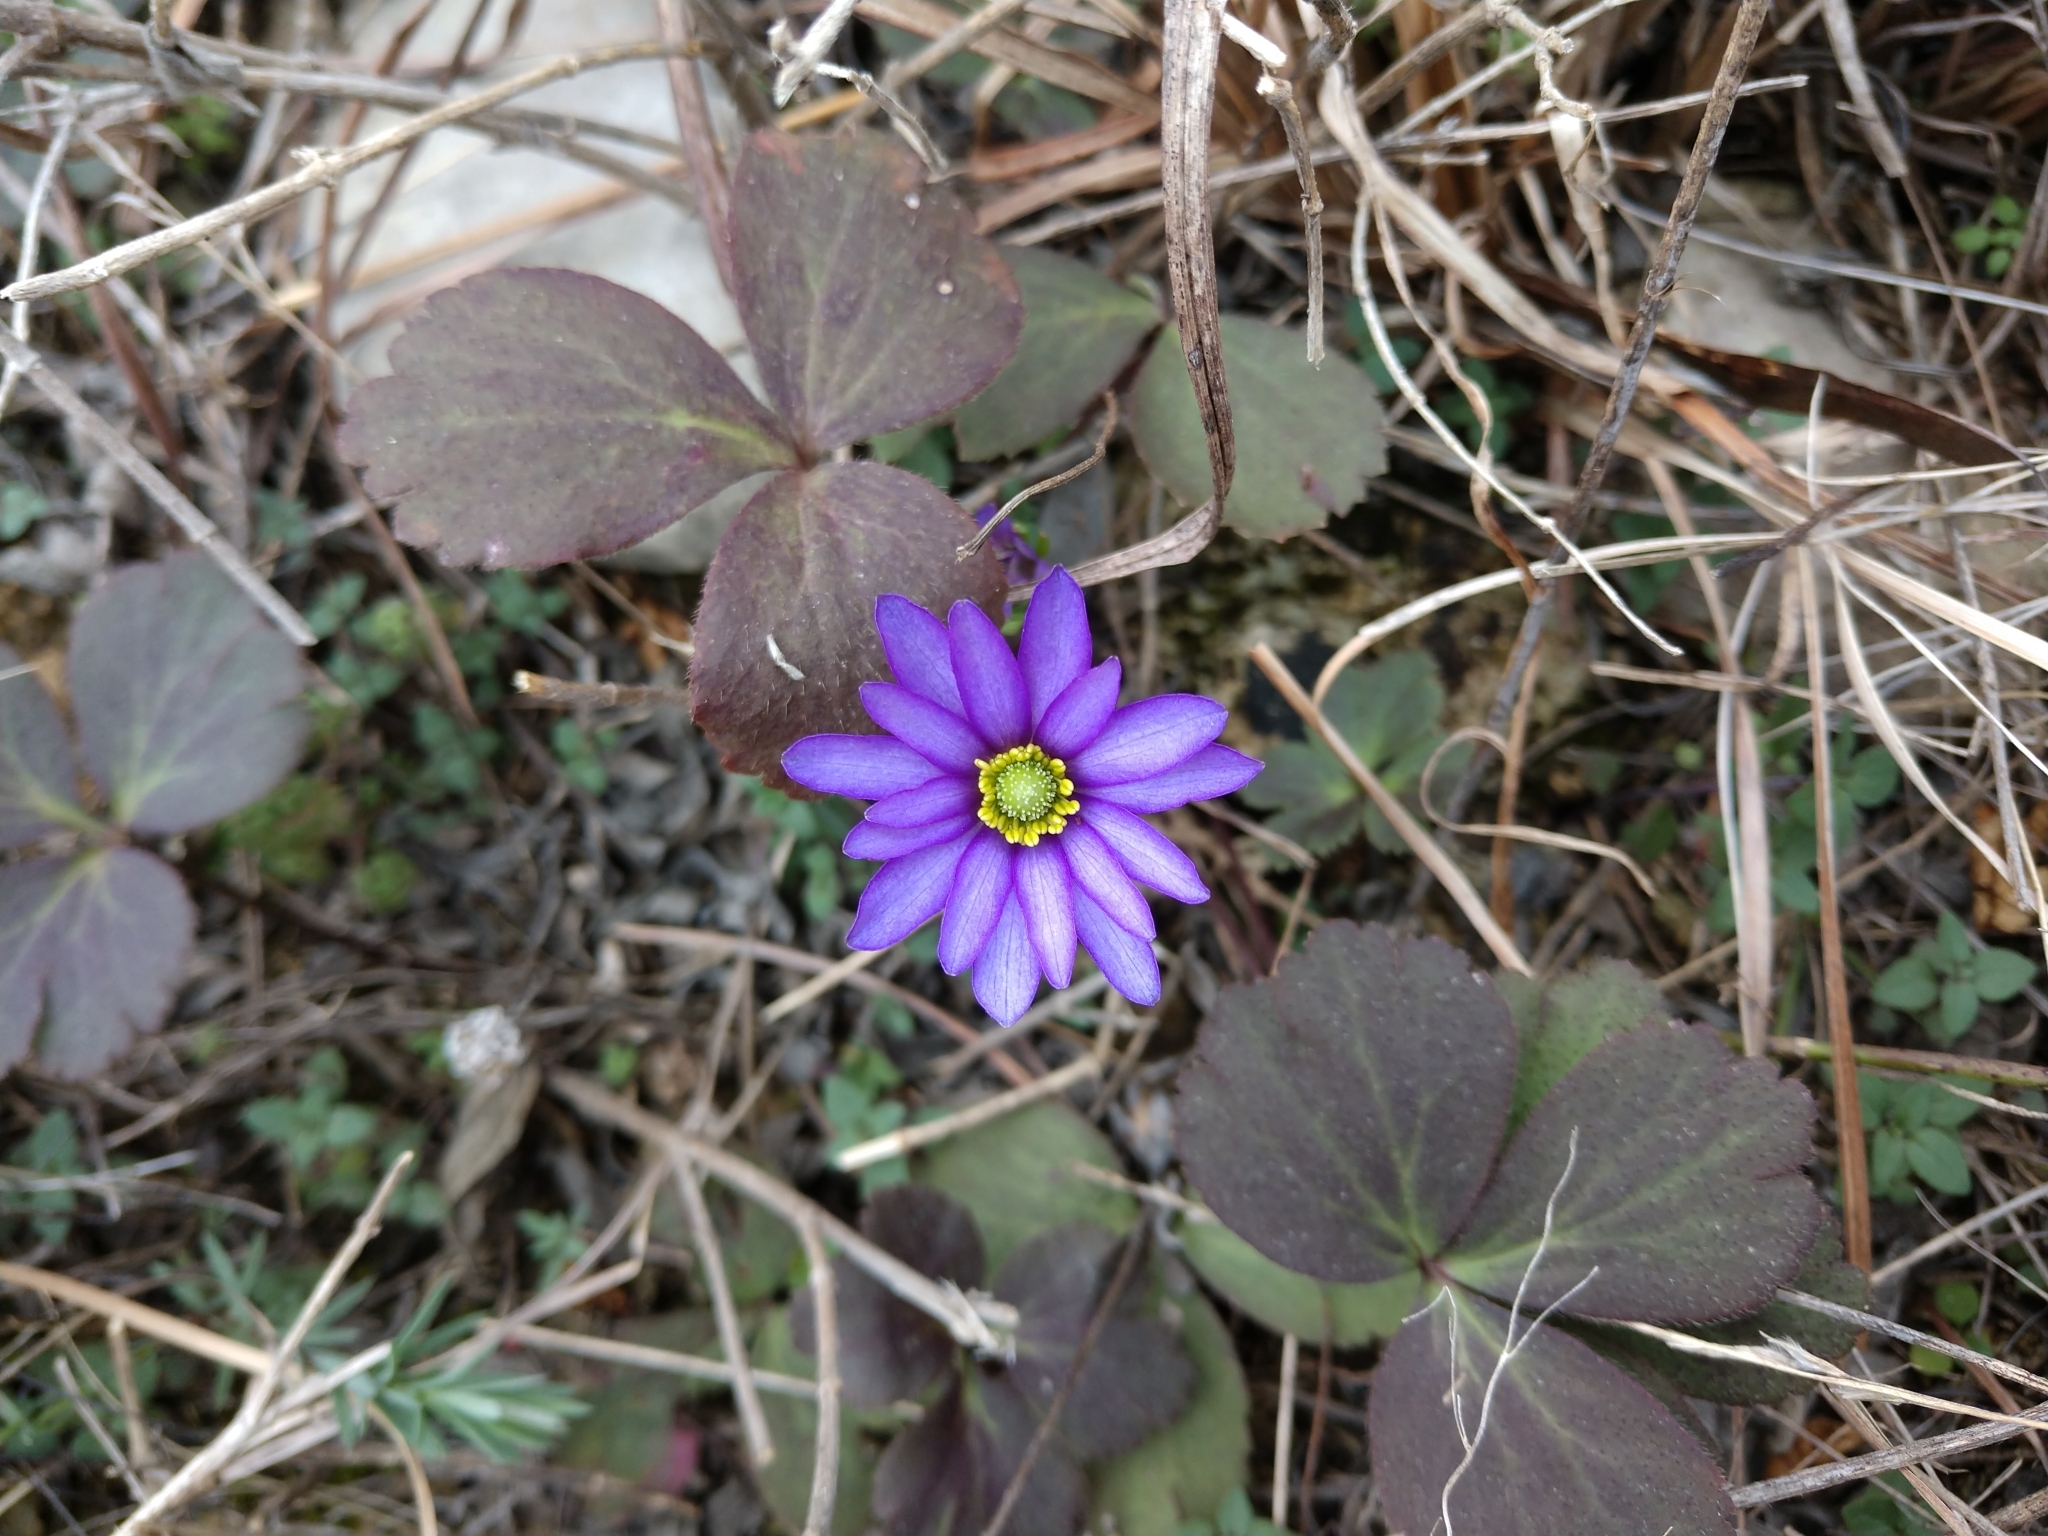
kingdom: Plantae
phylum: Tracheophyta
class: Magnoliopsida
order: Ranunculales
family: Ranunculaceae
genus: Anemone
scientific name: Anemone berlandieri
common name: Ten-petal anemone
